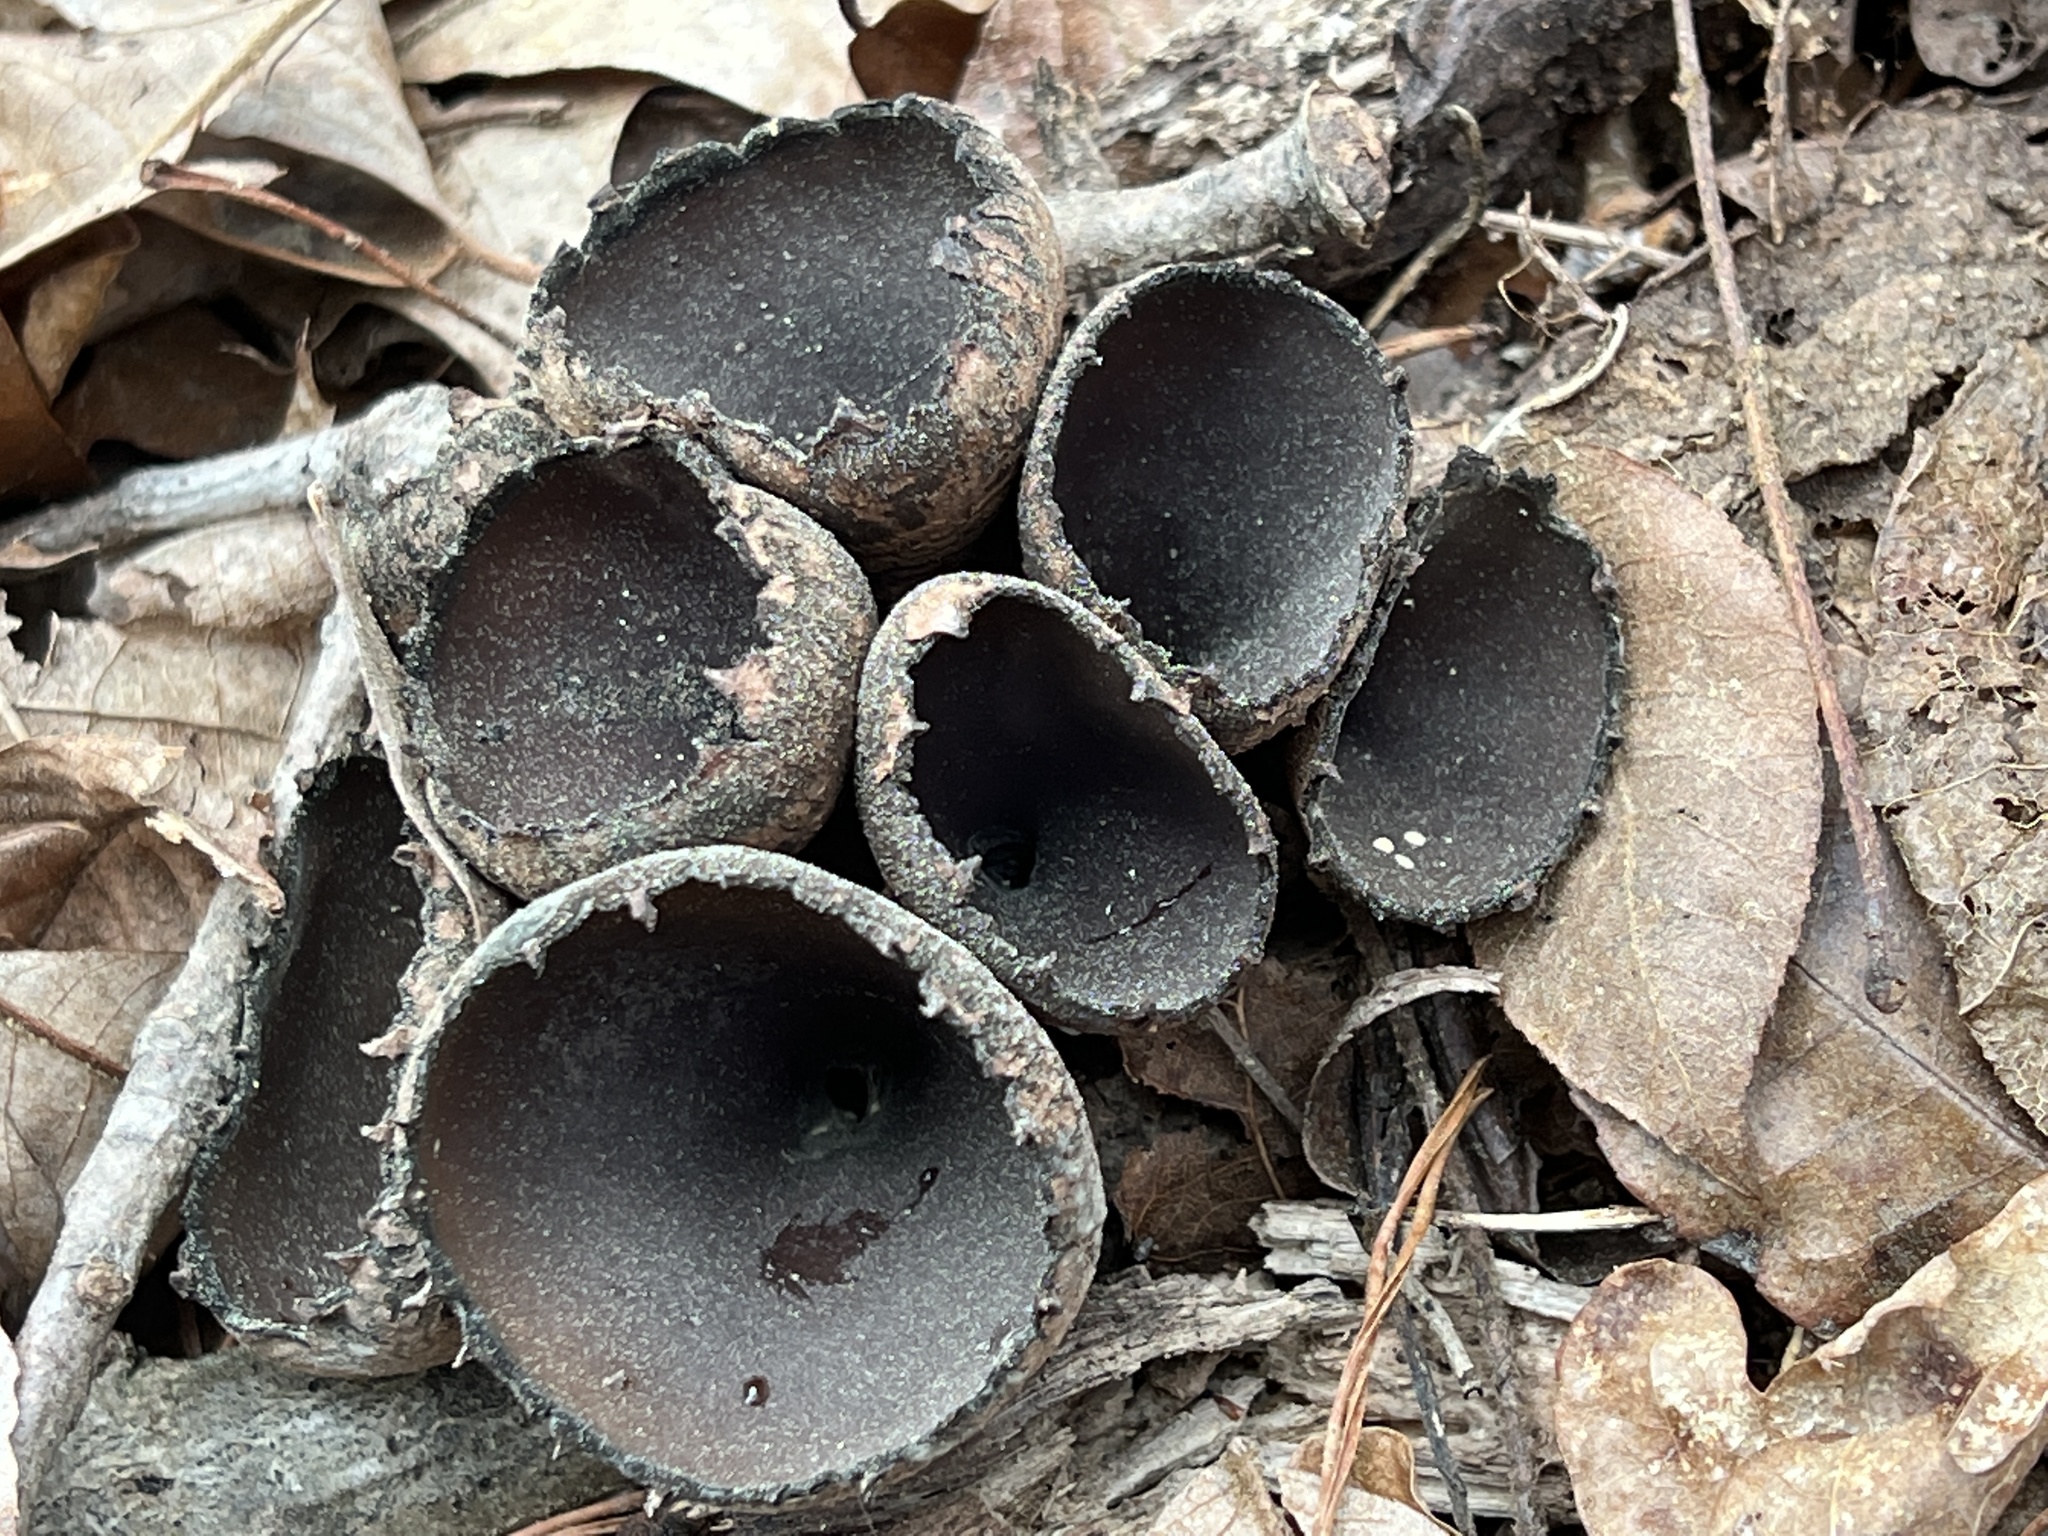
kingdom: Fungi
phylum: Ascomycota
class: Pezizomycetes
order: Pezizales
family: Sarcosomataceae
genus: Urnula
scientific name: Urnula craterium
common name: Devil's urn
